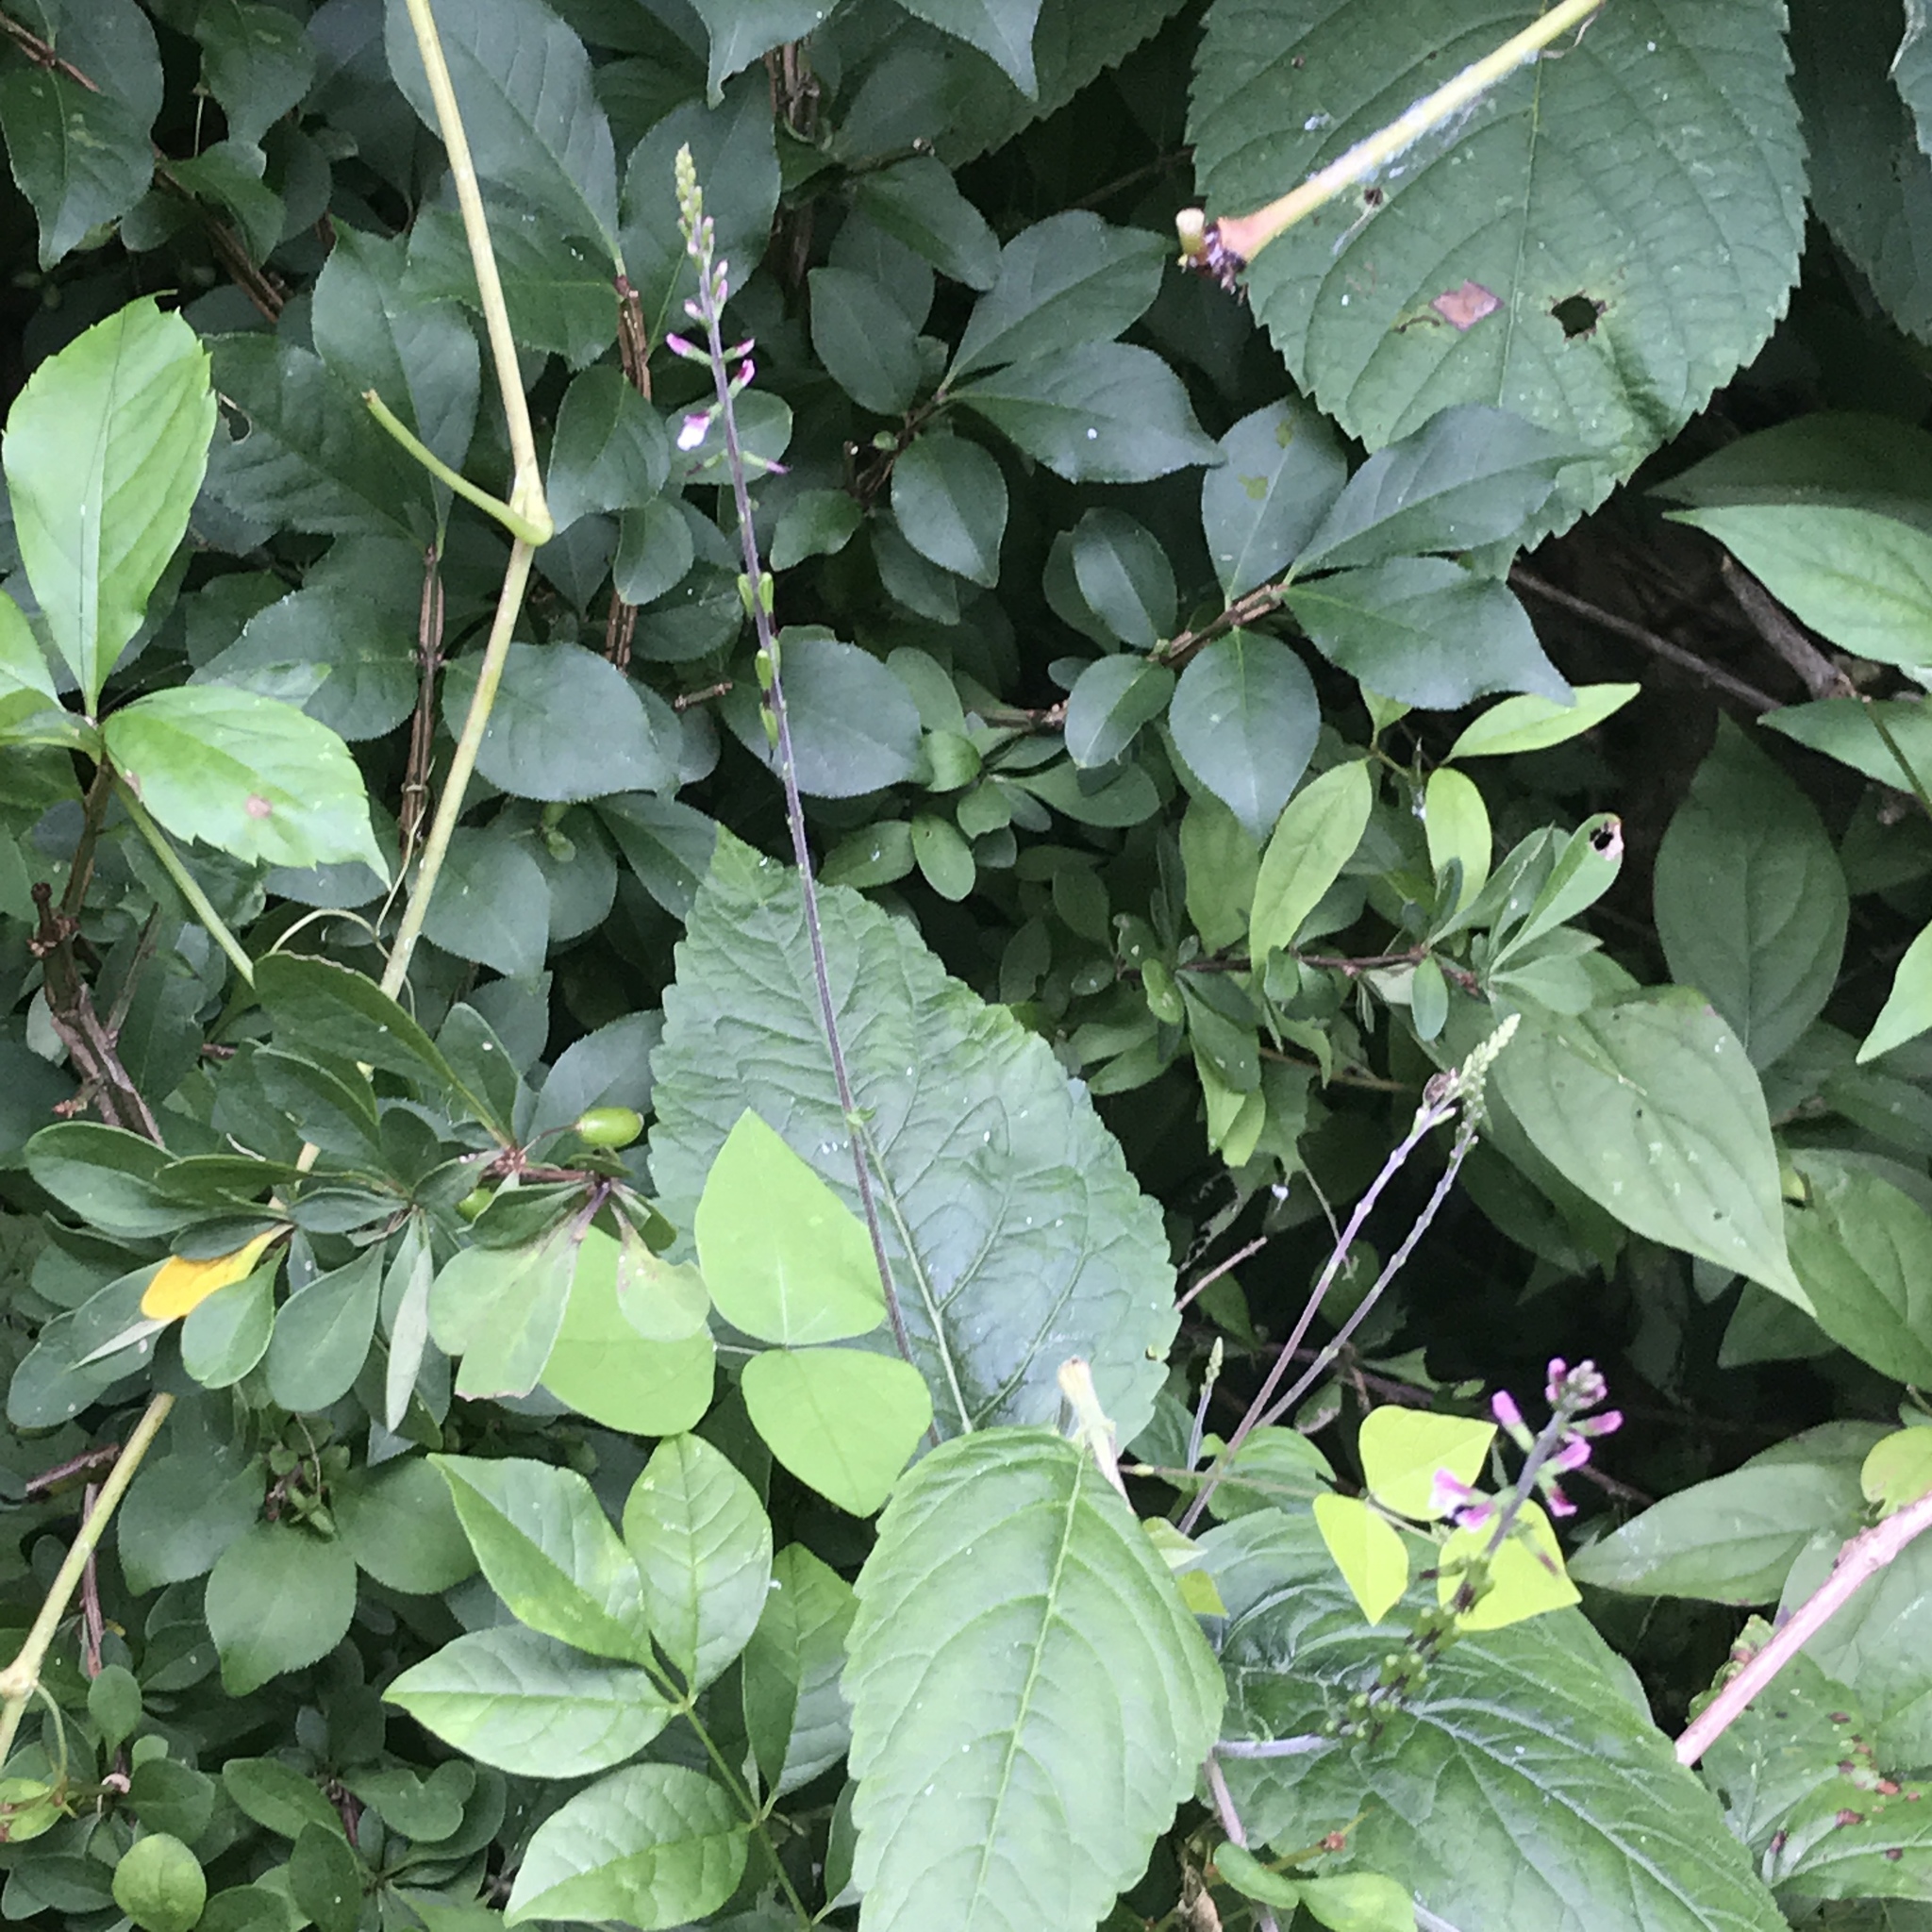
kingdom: Plantae
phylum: Tracheophyta
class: Magnoliopsida
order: Lamiales
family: Phrymaceae
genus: Phryma
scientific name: Phryma leptostachya
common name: American lopseed
